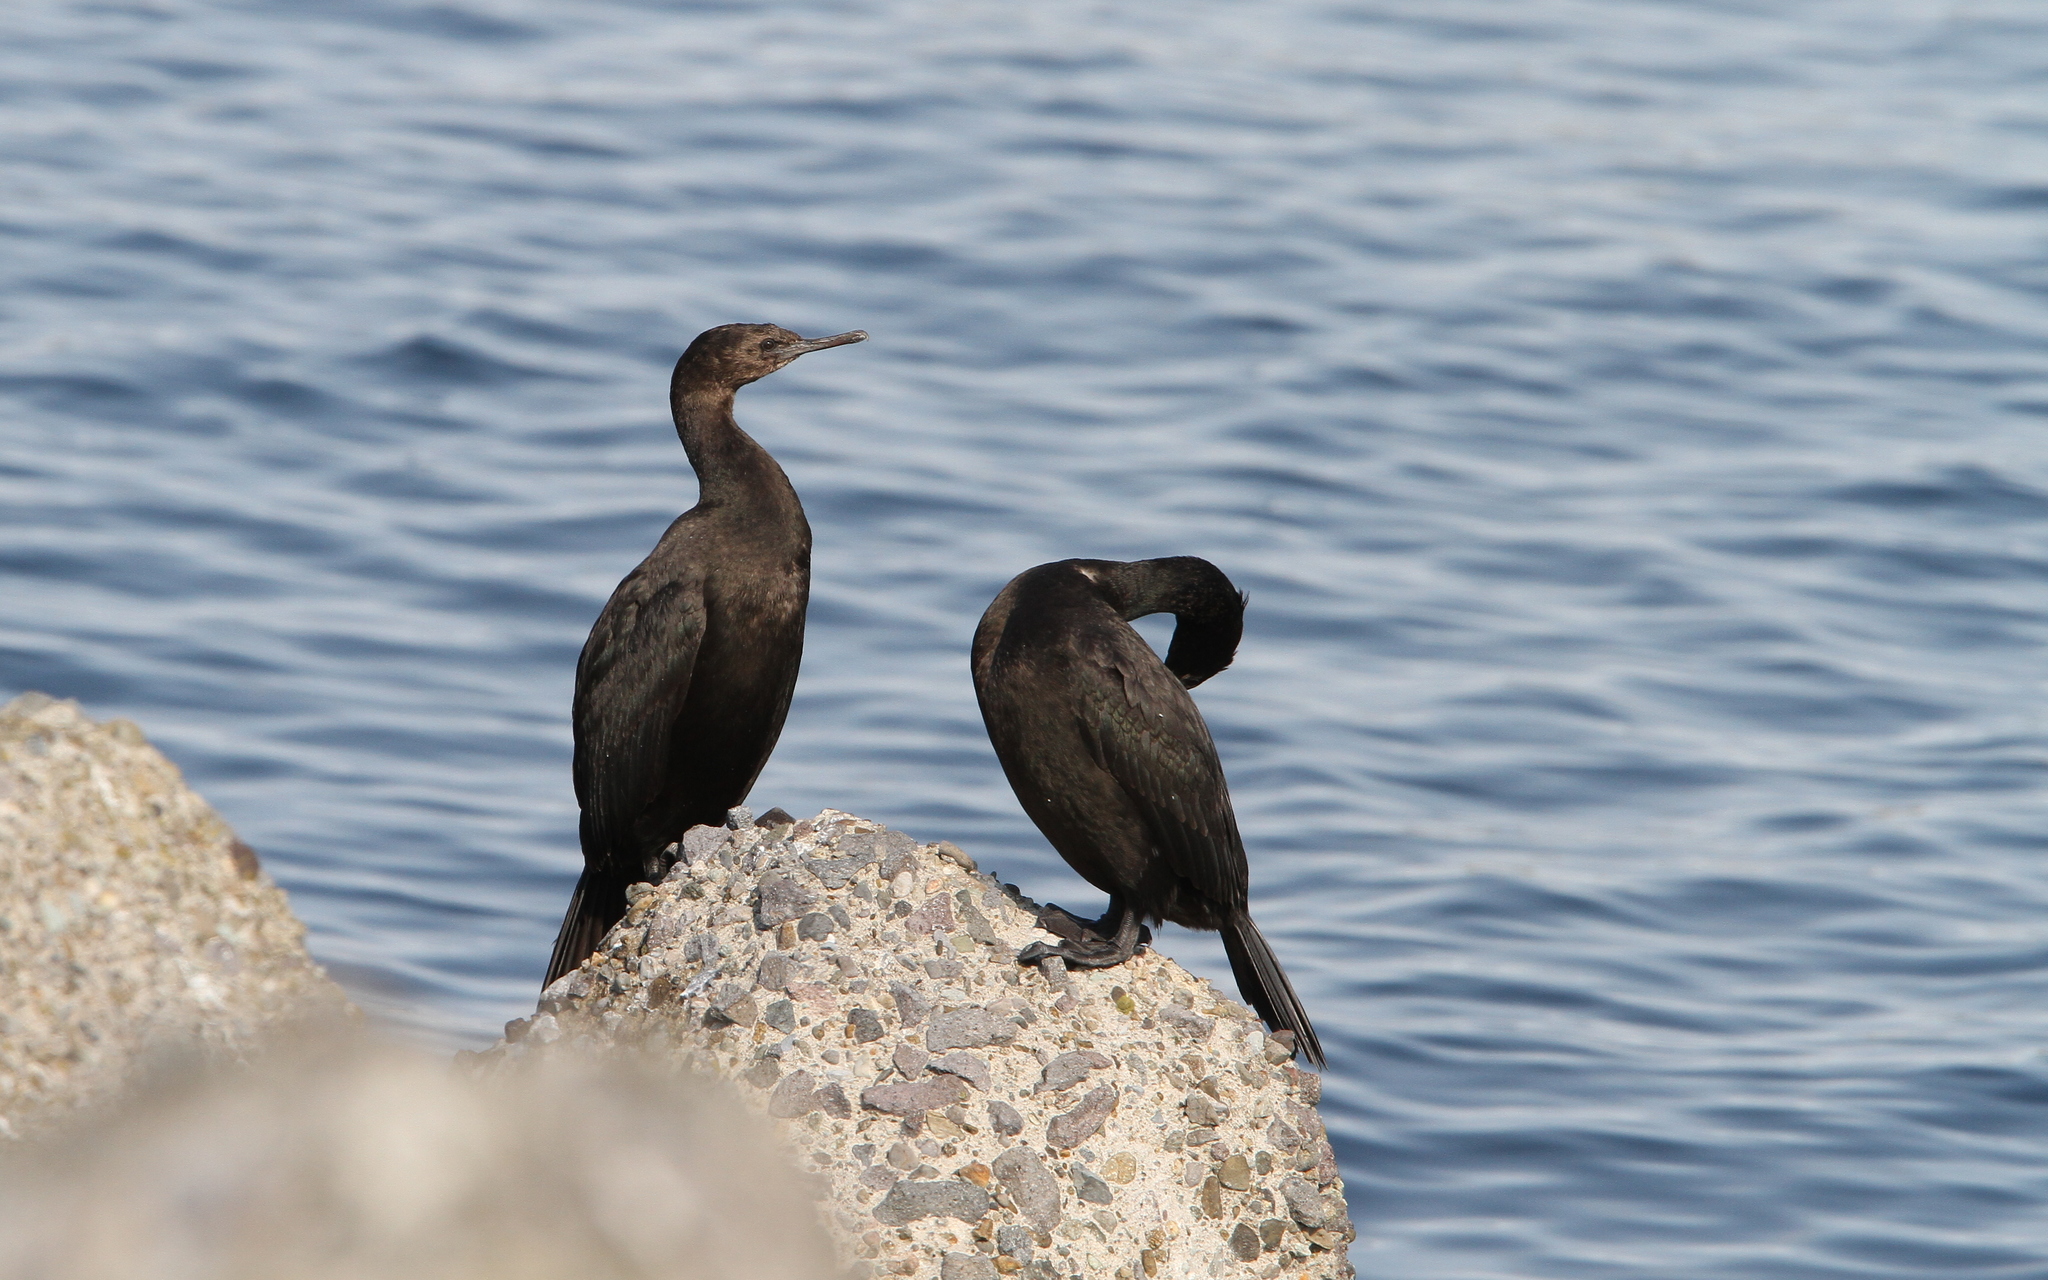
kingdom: Animalia
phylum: Chordata
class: Aves
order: Suliformes
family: Phalacrocoracidae
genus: Phalacrocorax
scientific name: Phalacrocorax pelagicus
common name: Pelagic cormorant
